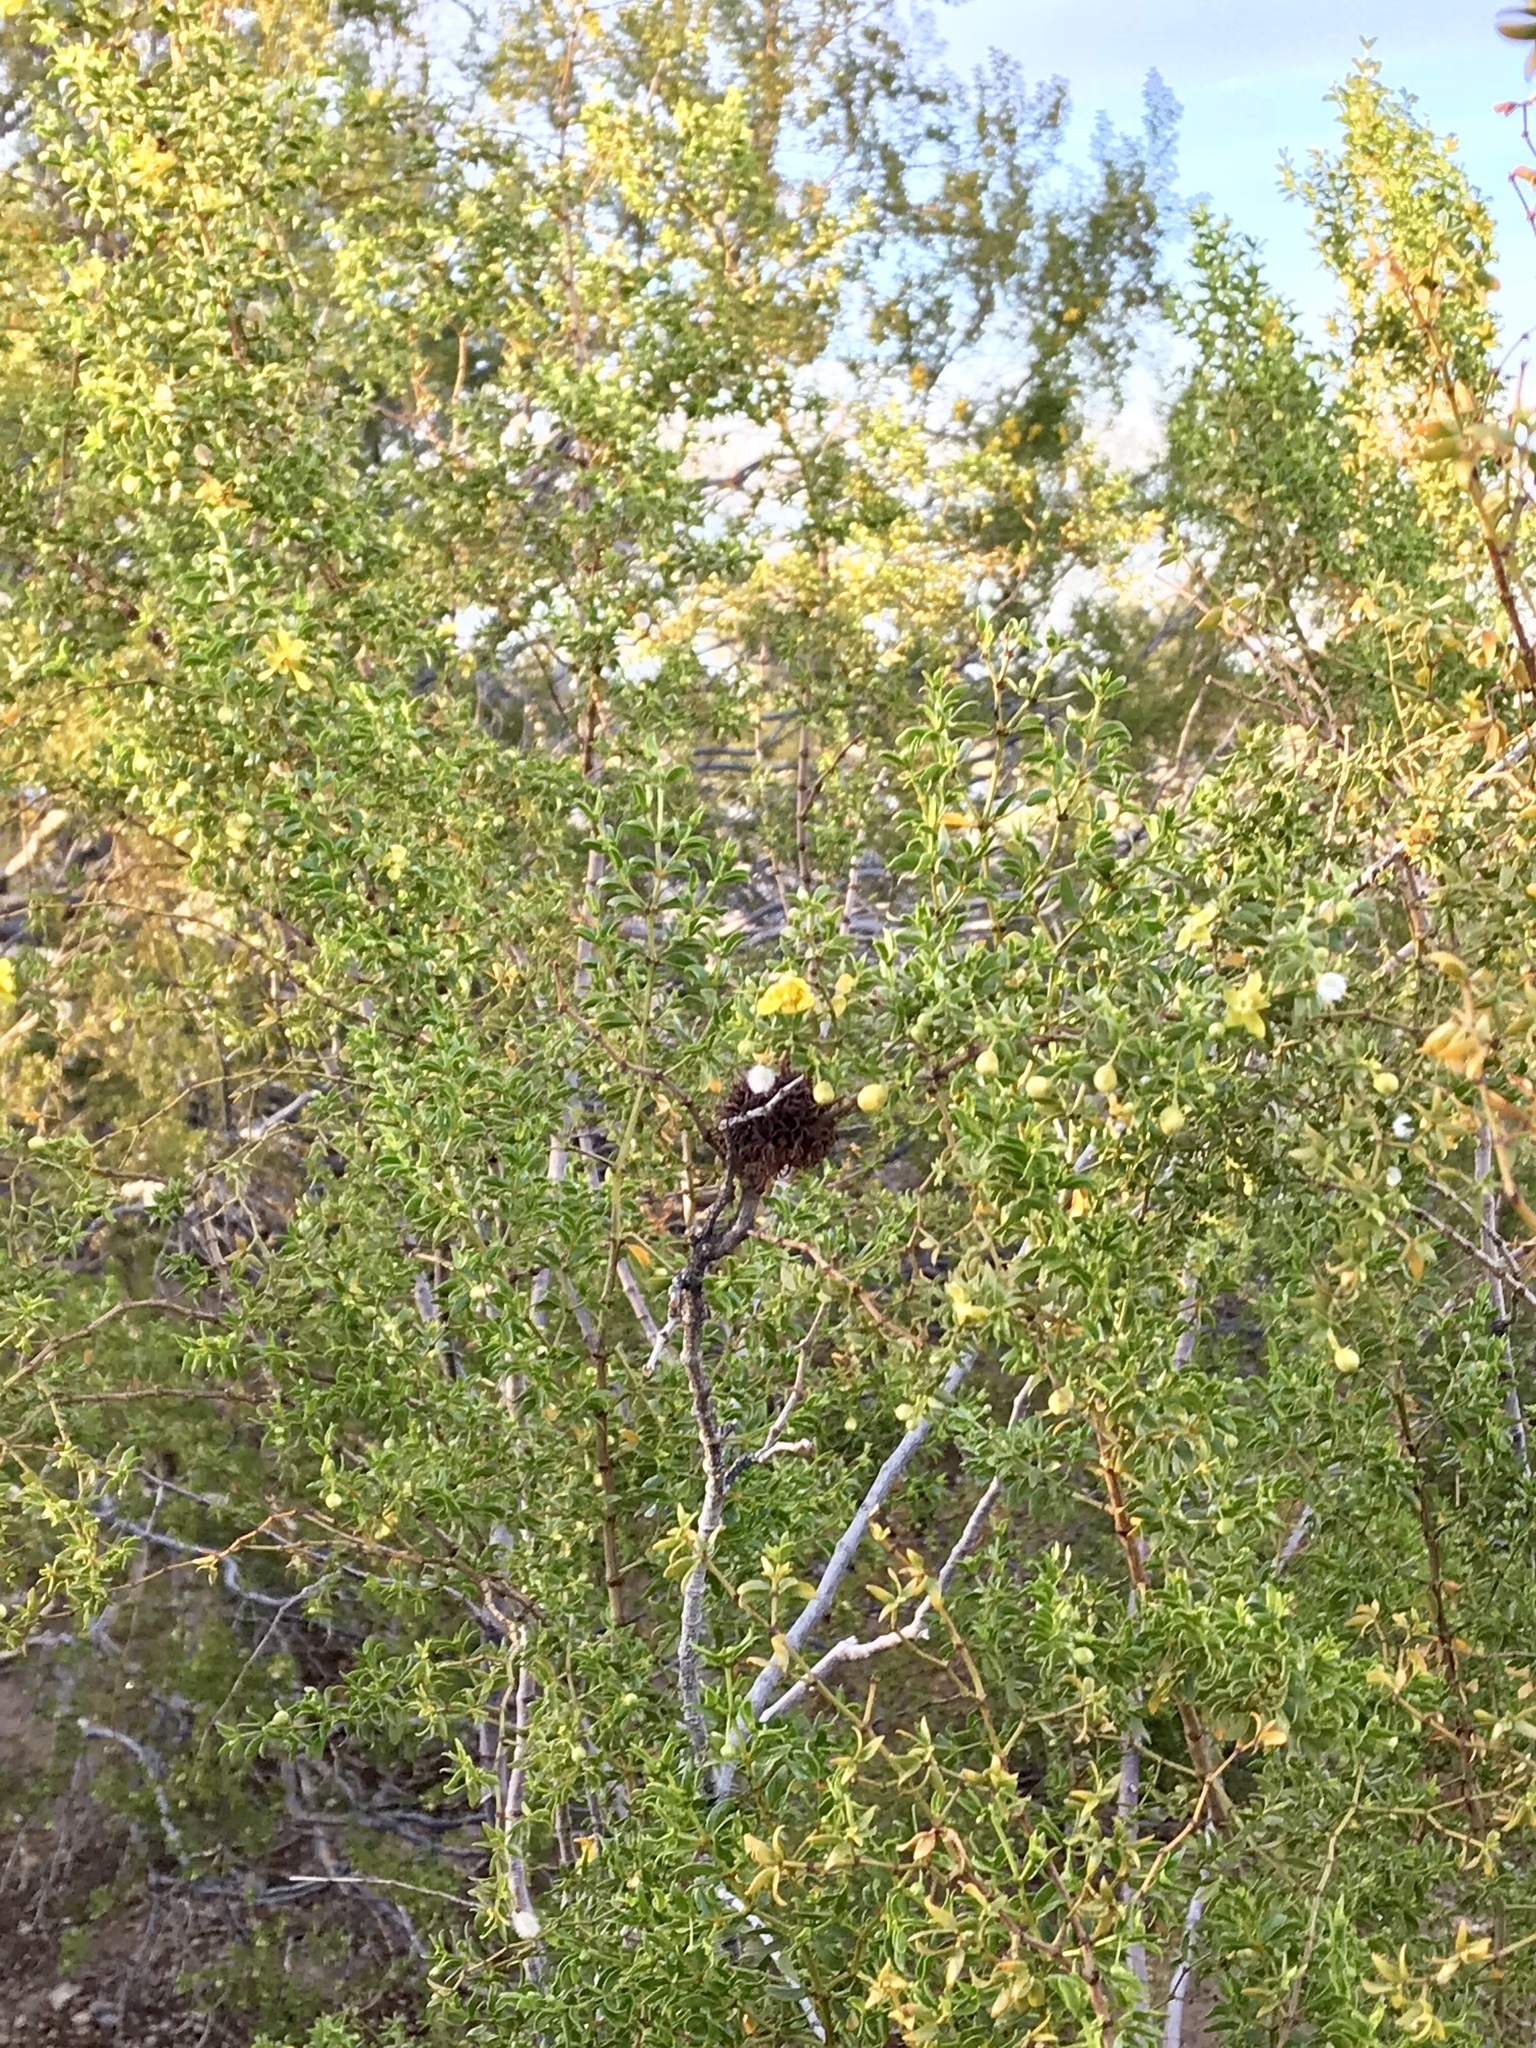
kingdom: Plantae
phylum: Tracheophyta
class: Magnoliopsida
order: Zygophyllales
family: Zygophyllaceae
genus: Larrea
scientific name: Larrea tridentata
